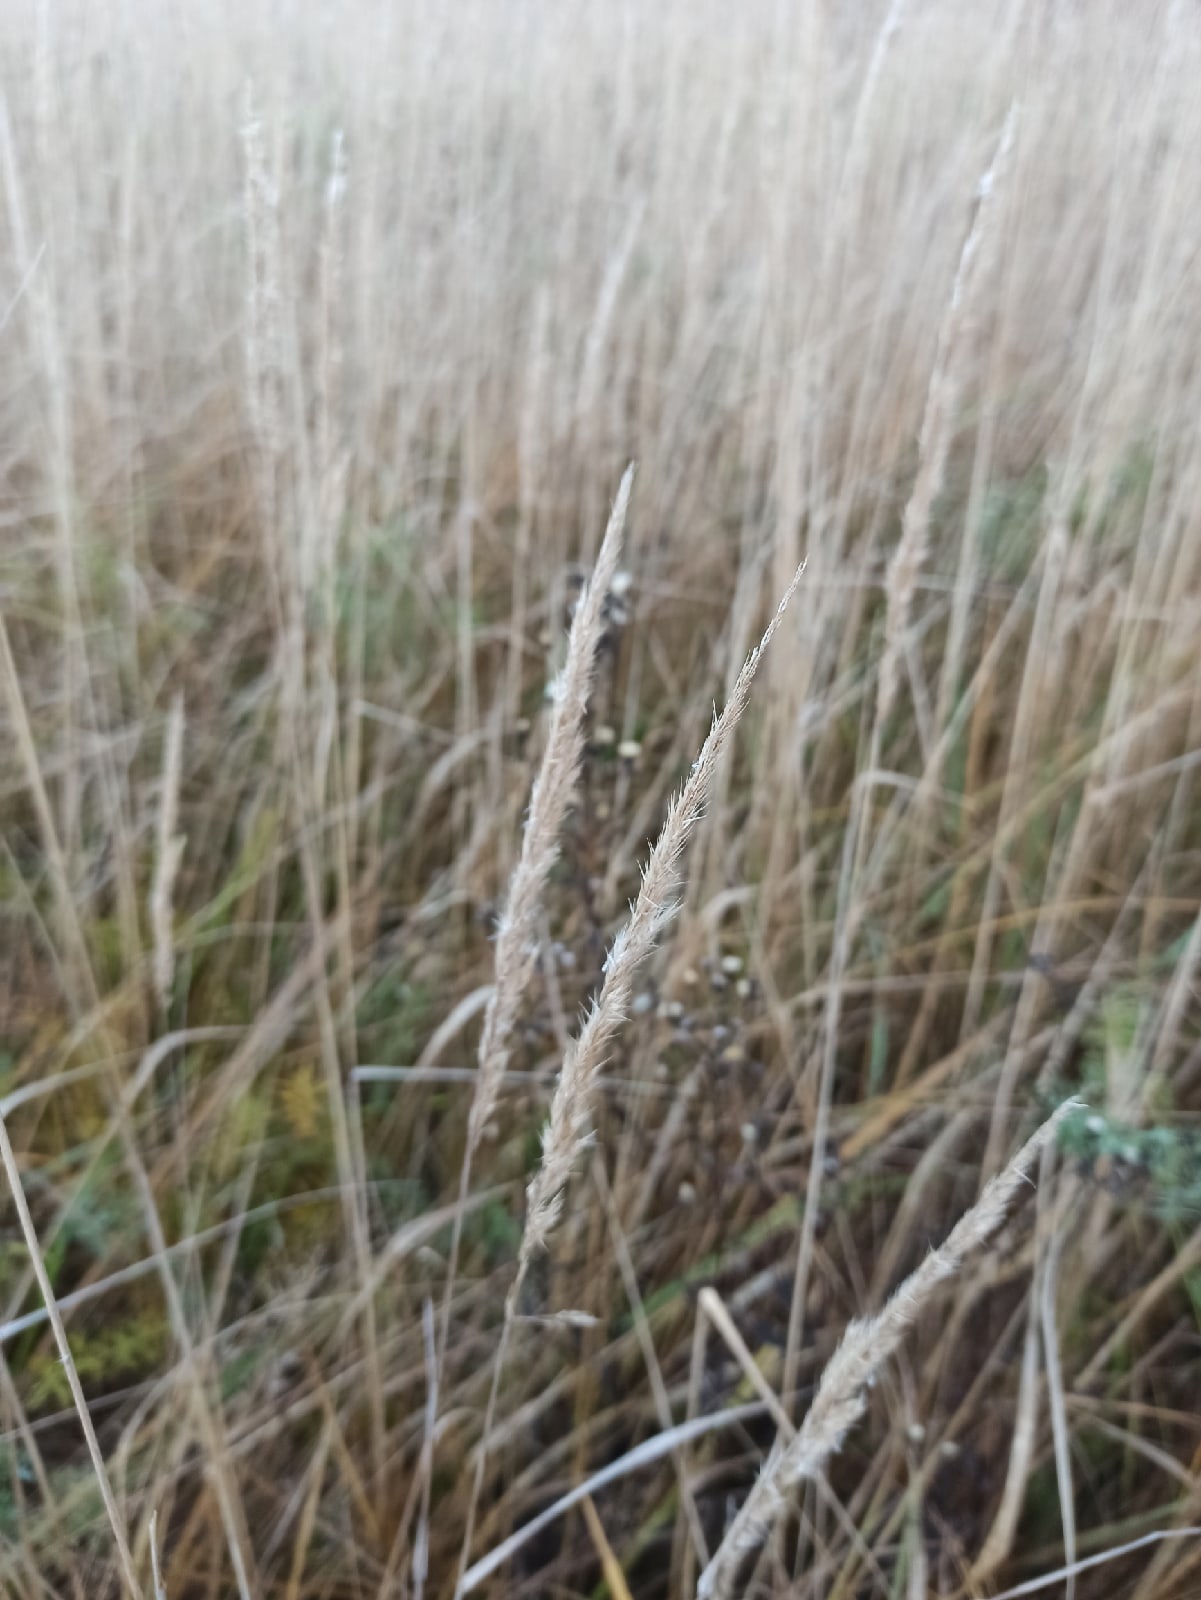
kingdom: Plantae
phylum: Tracheophyta
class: Liliopsida
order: Poales
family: Poaceae
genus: Calamagrostis
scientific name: Calamagrostis epigejos
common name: Wood small-reed
